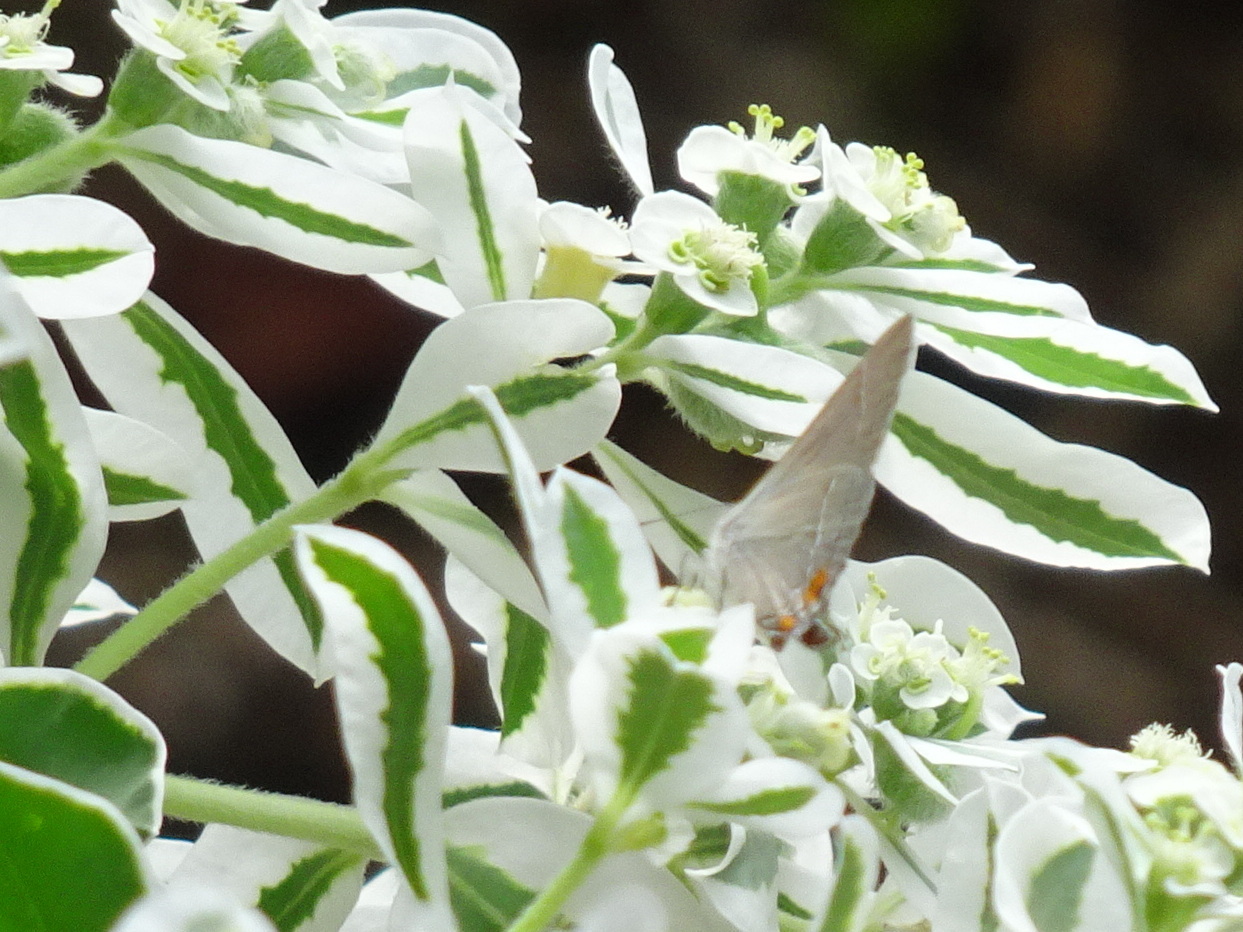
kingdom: Animalia
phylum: Arthropoda
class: Insecta
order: Lepidoptera
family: Lycaenidae
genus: Strymon
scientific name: Strymon melinus
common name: Gray hairstreak
